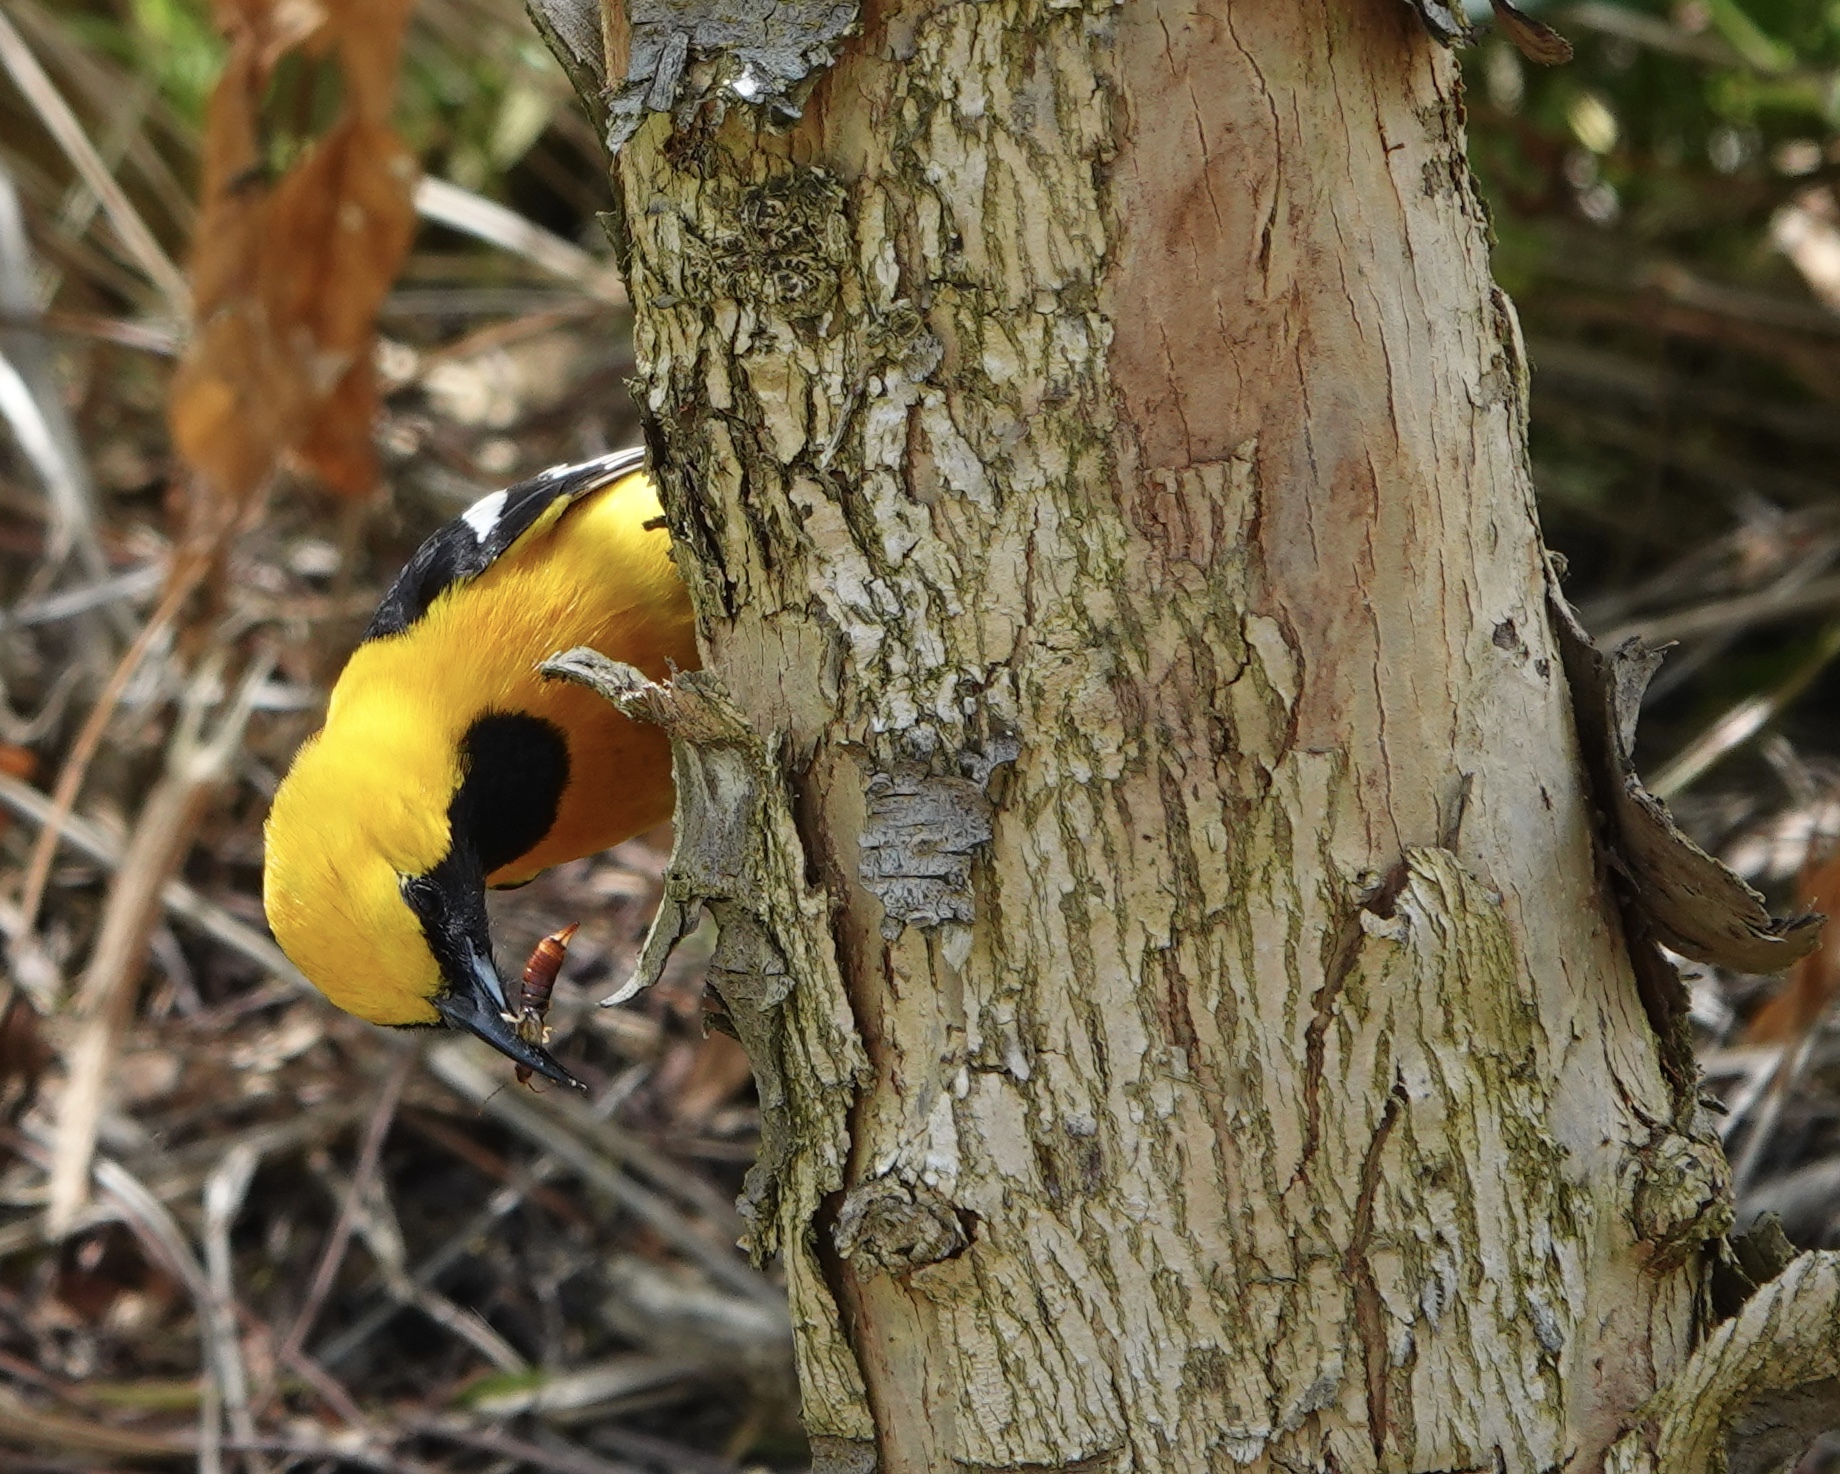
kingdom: Animalia
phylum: Chordata
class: Aves
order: Passeriformes
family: Icteridae
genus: Icterus
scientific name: Icterus cucullatus
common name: Hooded oriole
